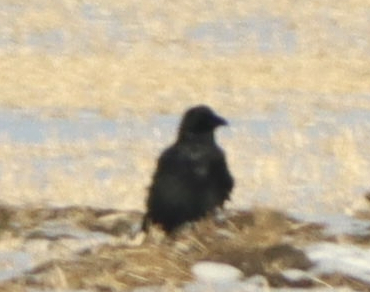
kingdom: Animalia
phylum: Chordata
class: Aves
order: Passeriformes
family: Corvidae
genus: Corvus
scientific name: Corvus corax
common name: Common raven
